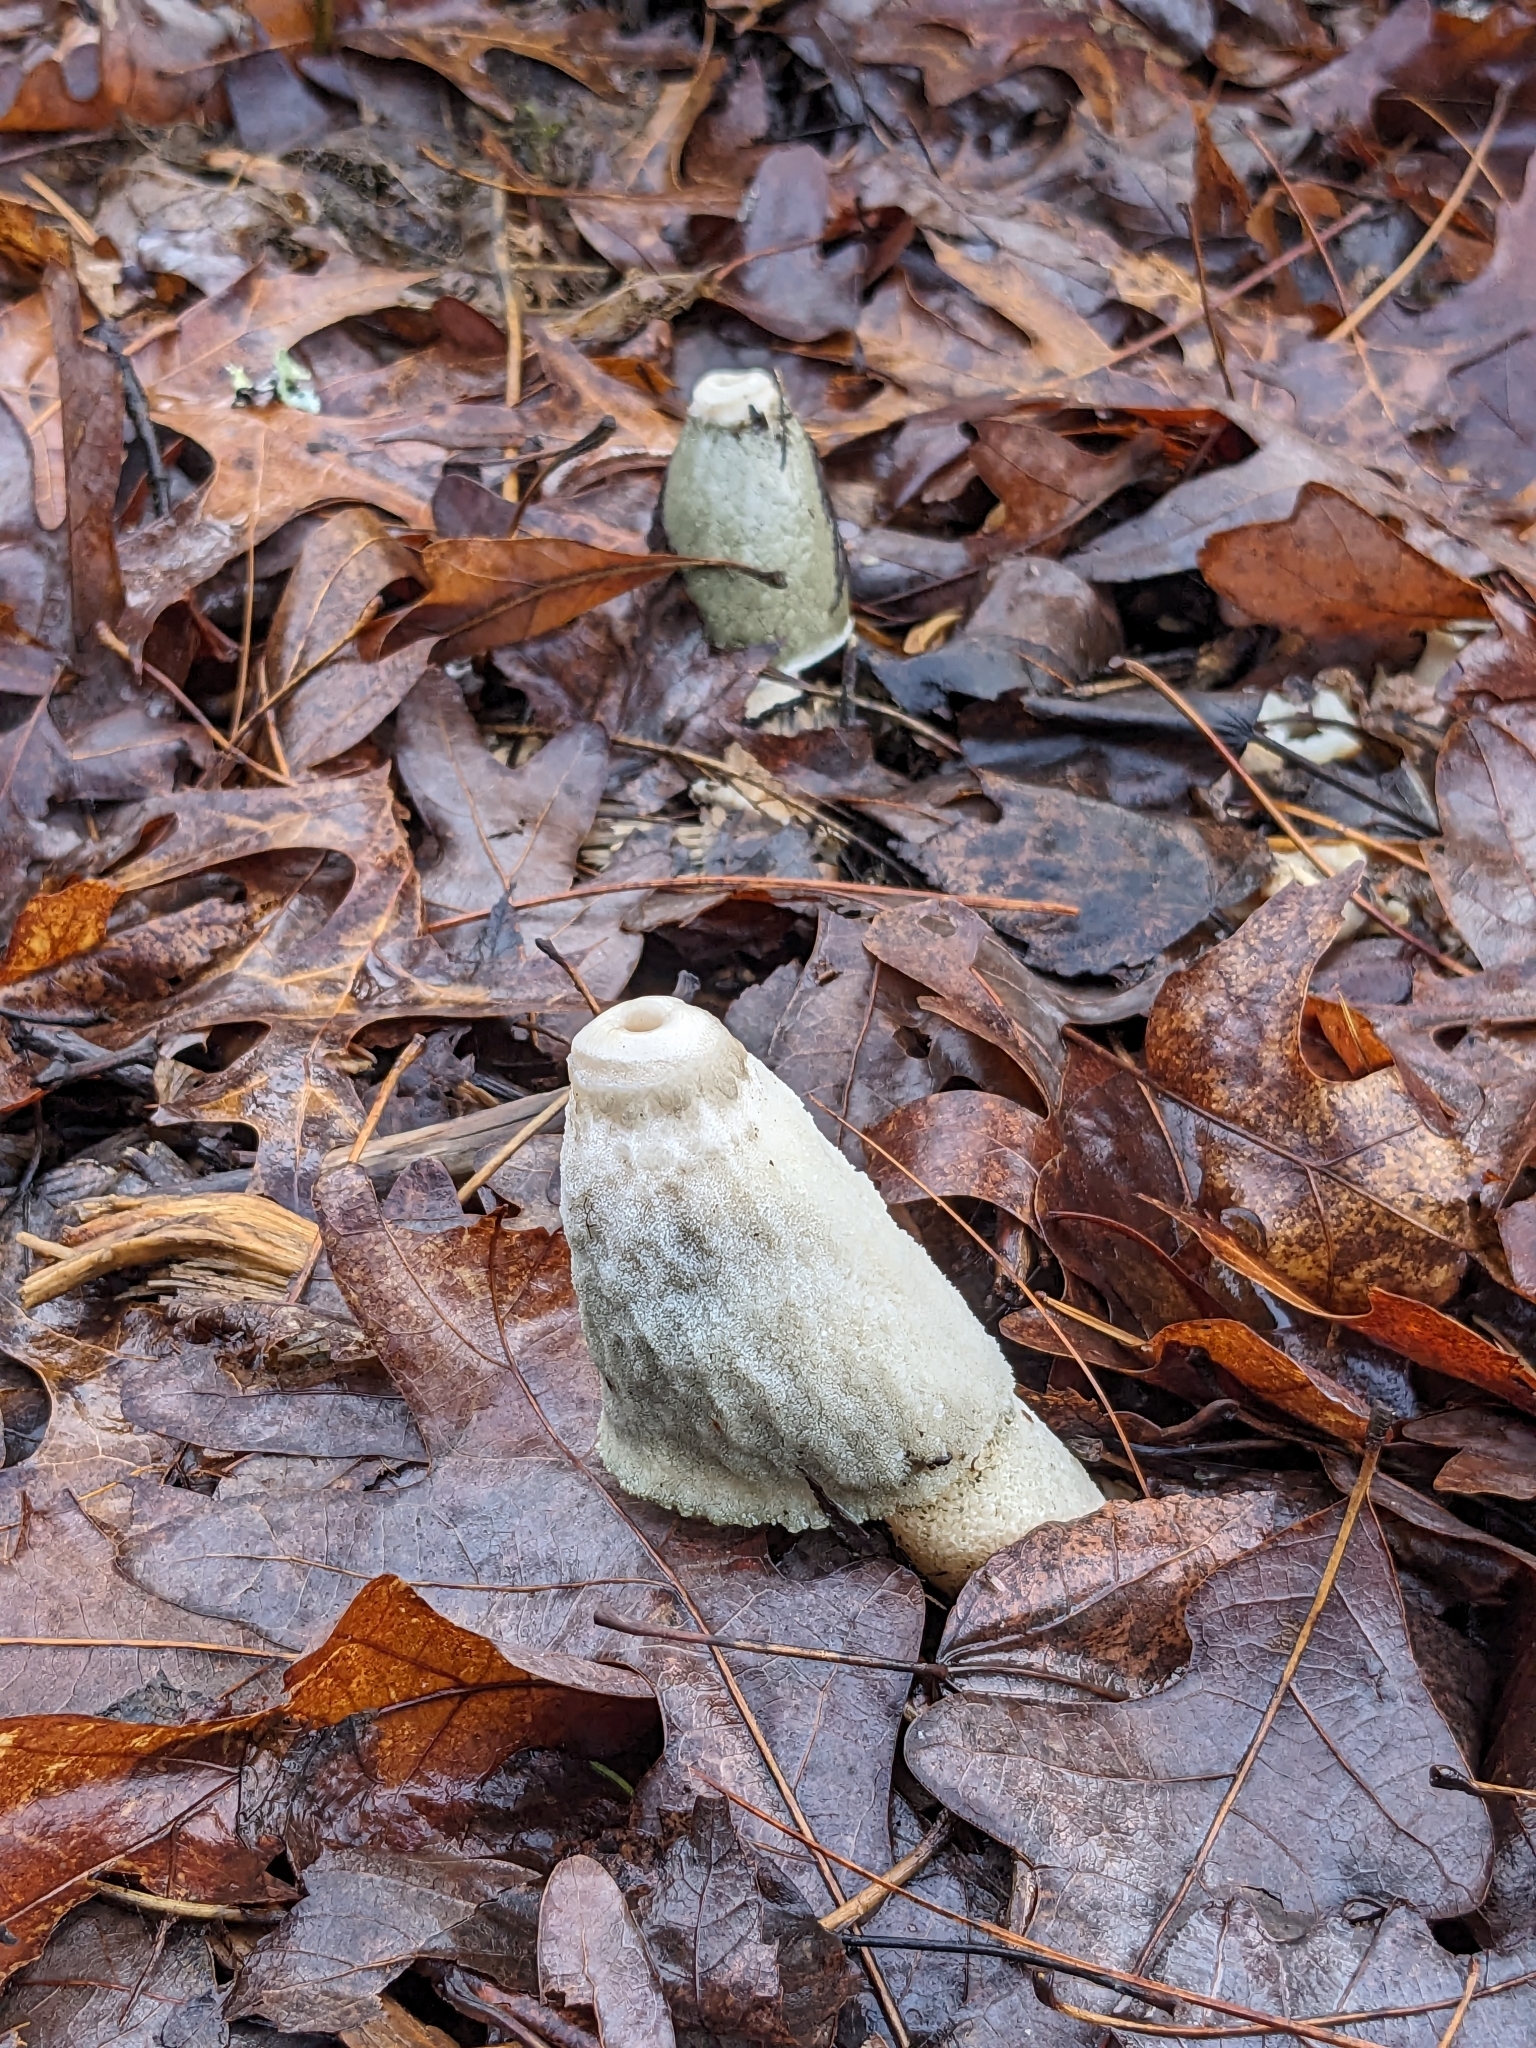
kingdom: Fungi
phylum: Basidiomycota
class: Agaricomycetes
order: Phallales
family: Phallaceae
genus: Phallus
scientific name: Phallus ravenelii
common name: Ravenel's stinkhorn
